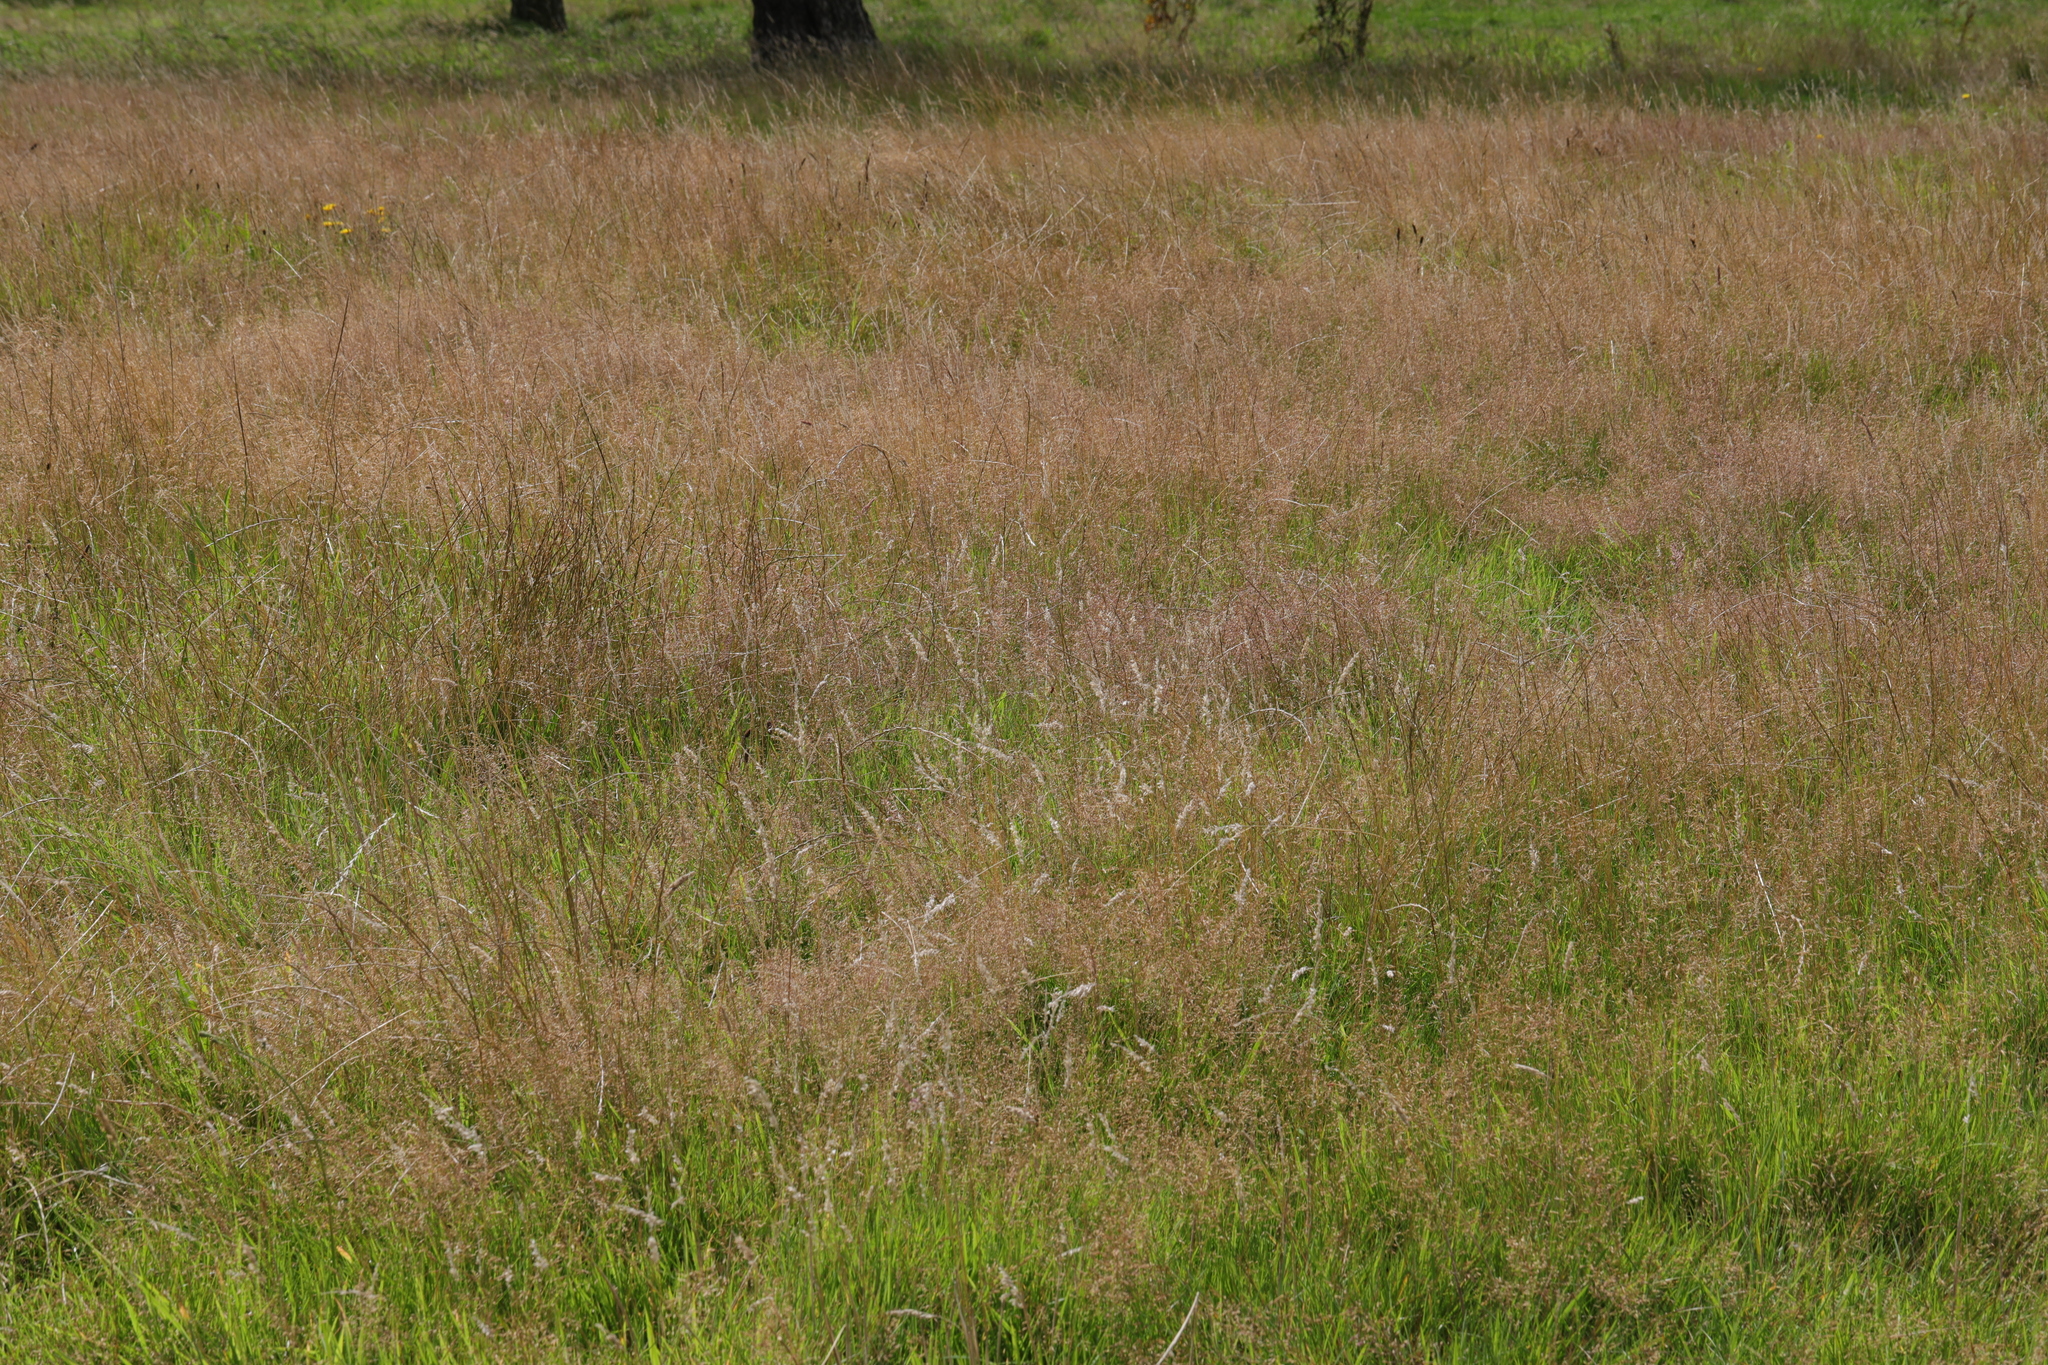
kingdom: Plantae
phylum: Tracheophyta
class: Liliopsida
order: Poales
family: Poaceae
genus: Agrostis
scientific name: Agrostis capillaris
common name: Colonial bentgrass
